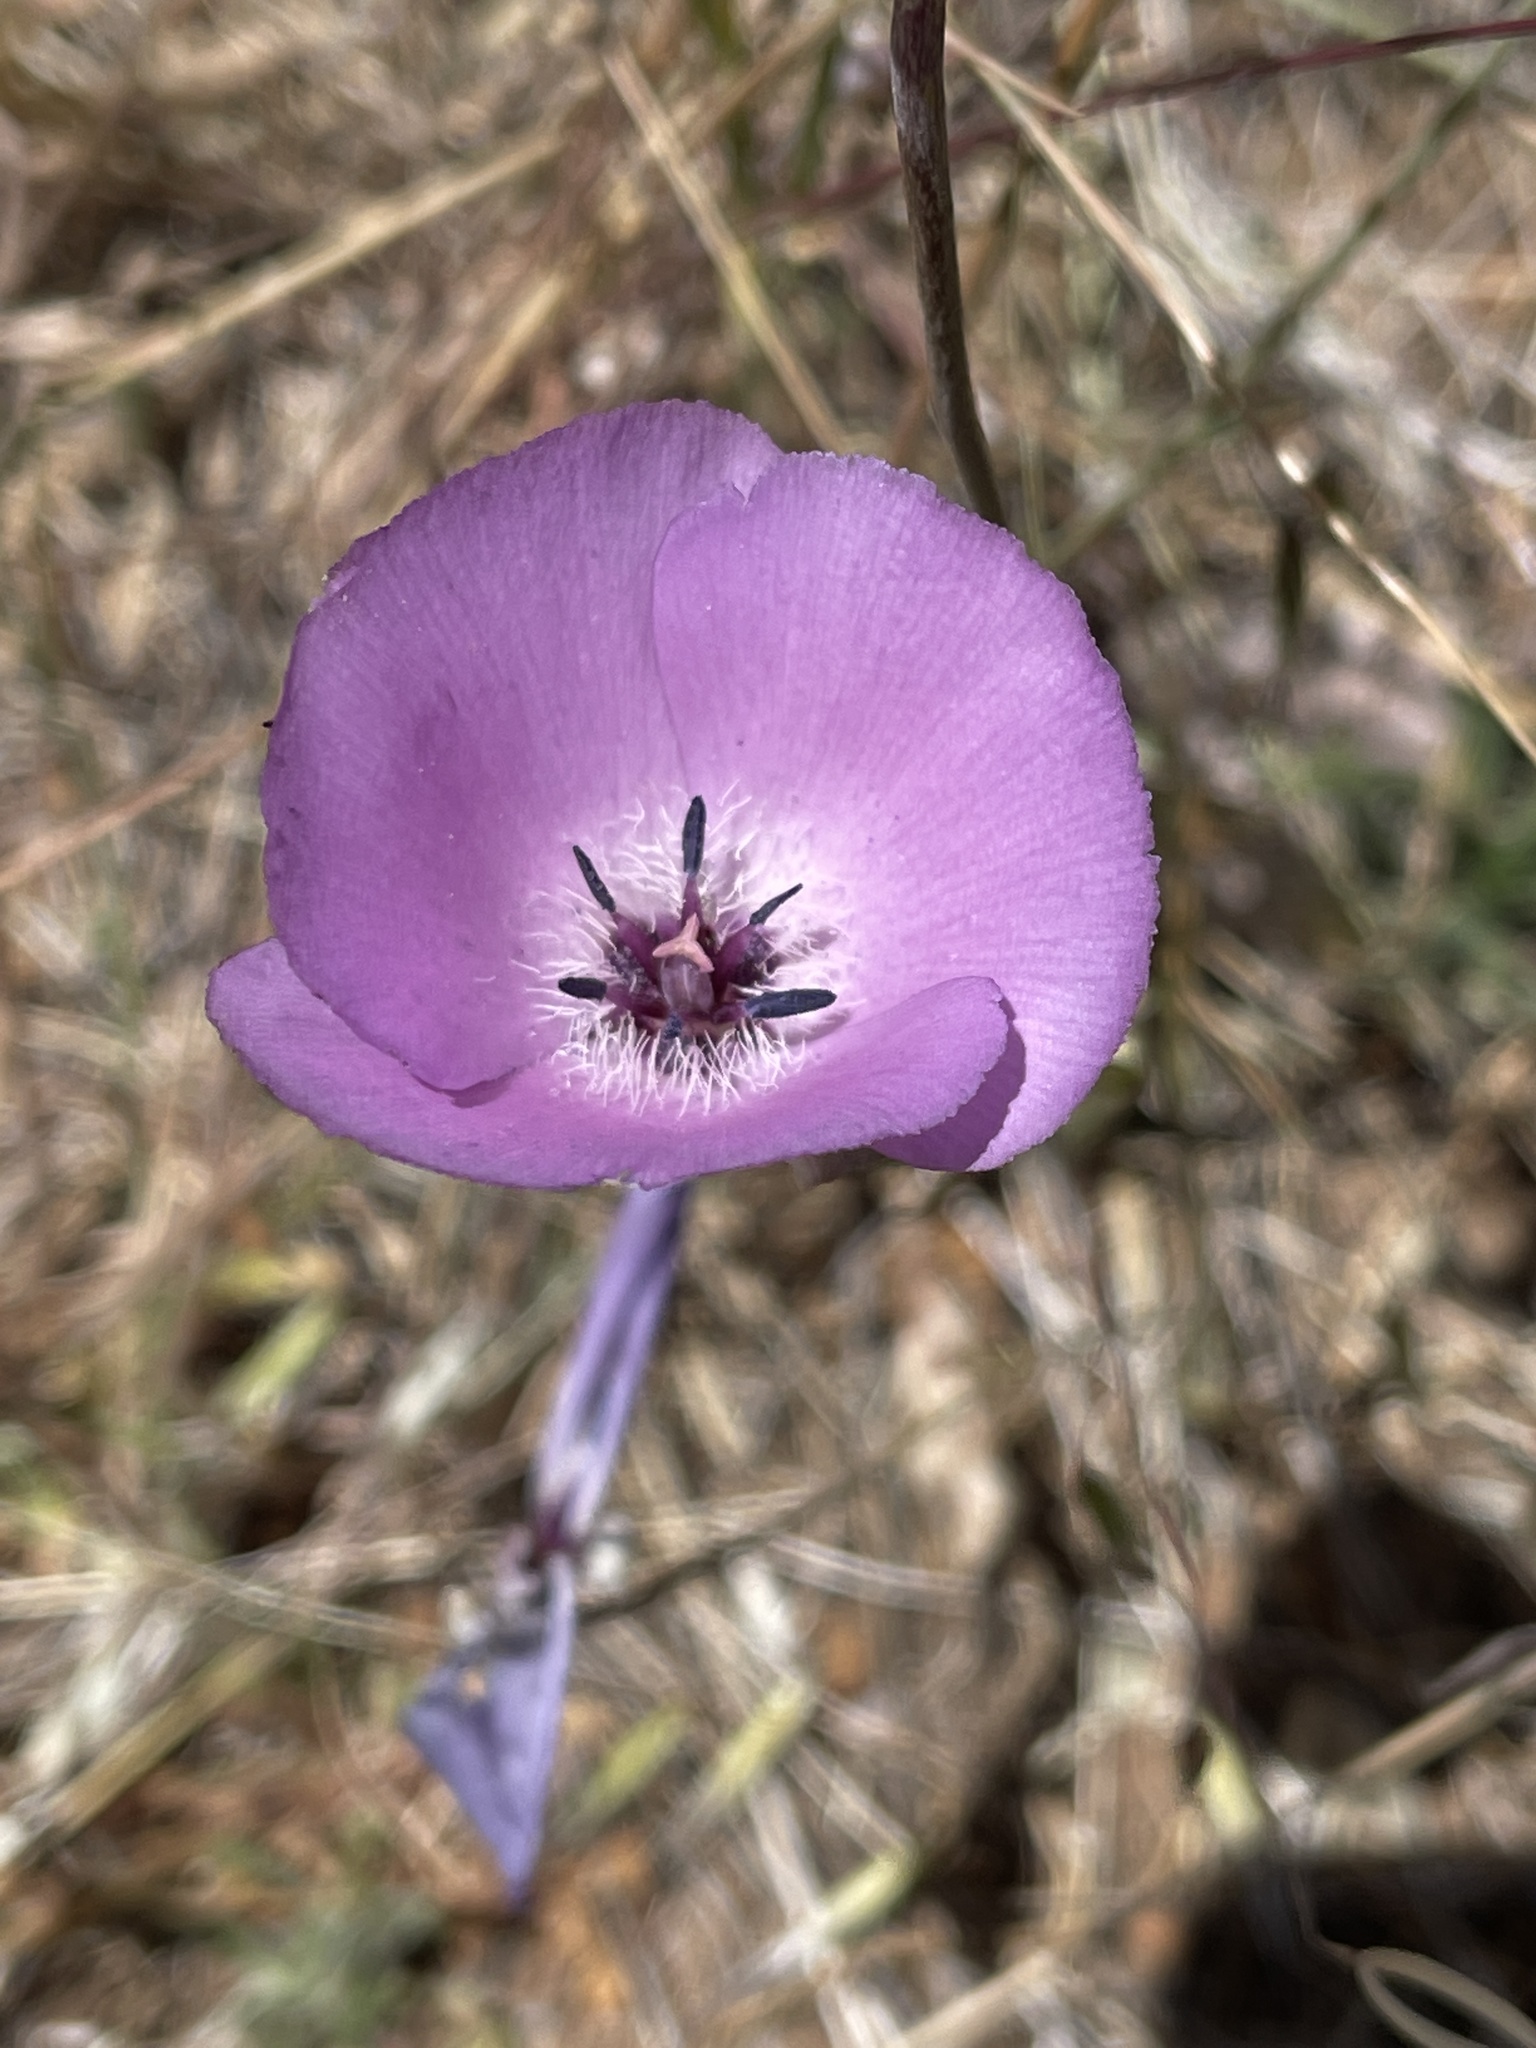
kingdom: Plantae
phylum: Tracheophyta
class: Liliopsida
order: Liliales
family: Liliaceae
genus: Calochortus
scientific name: Calochortus splendens
